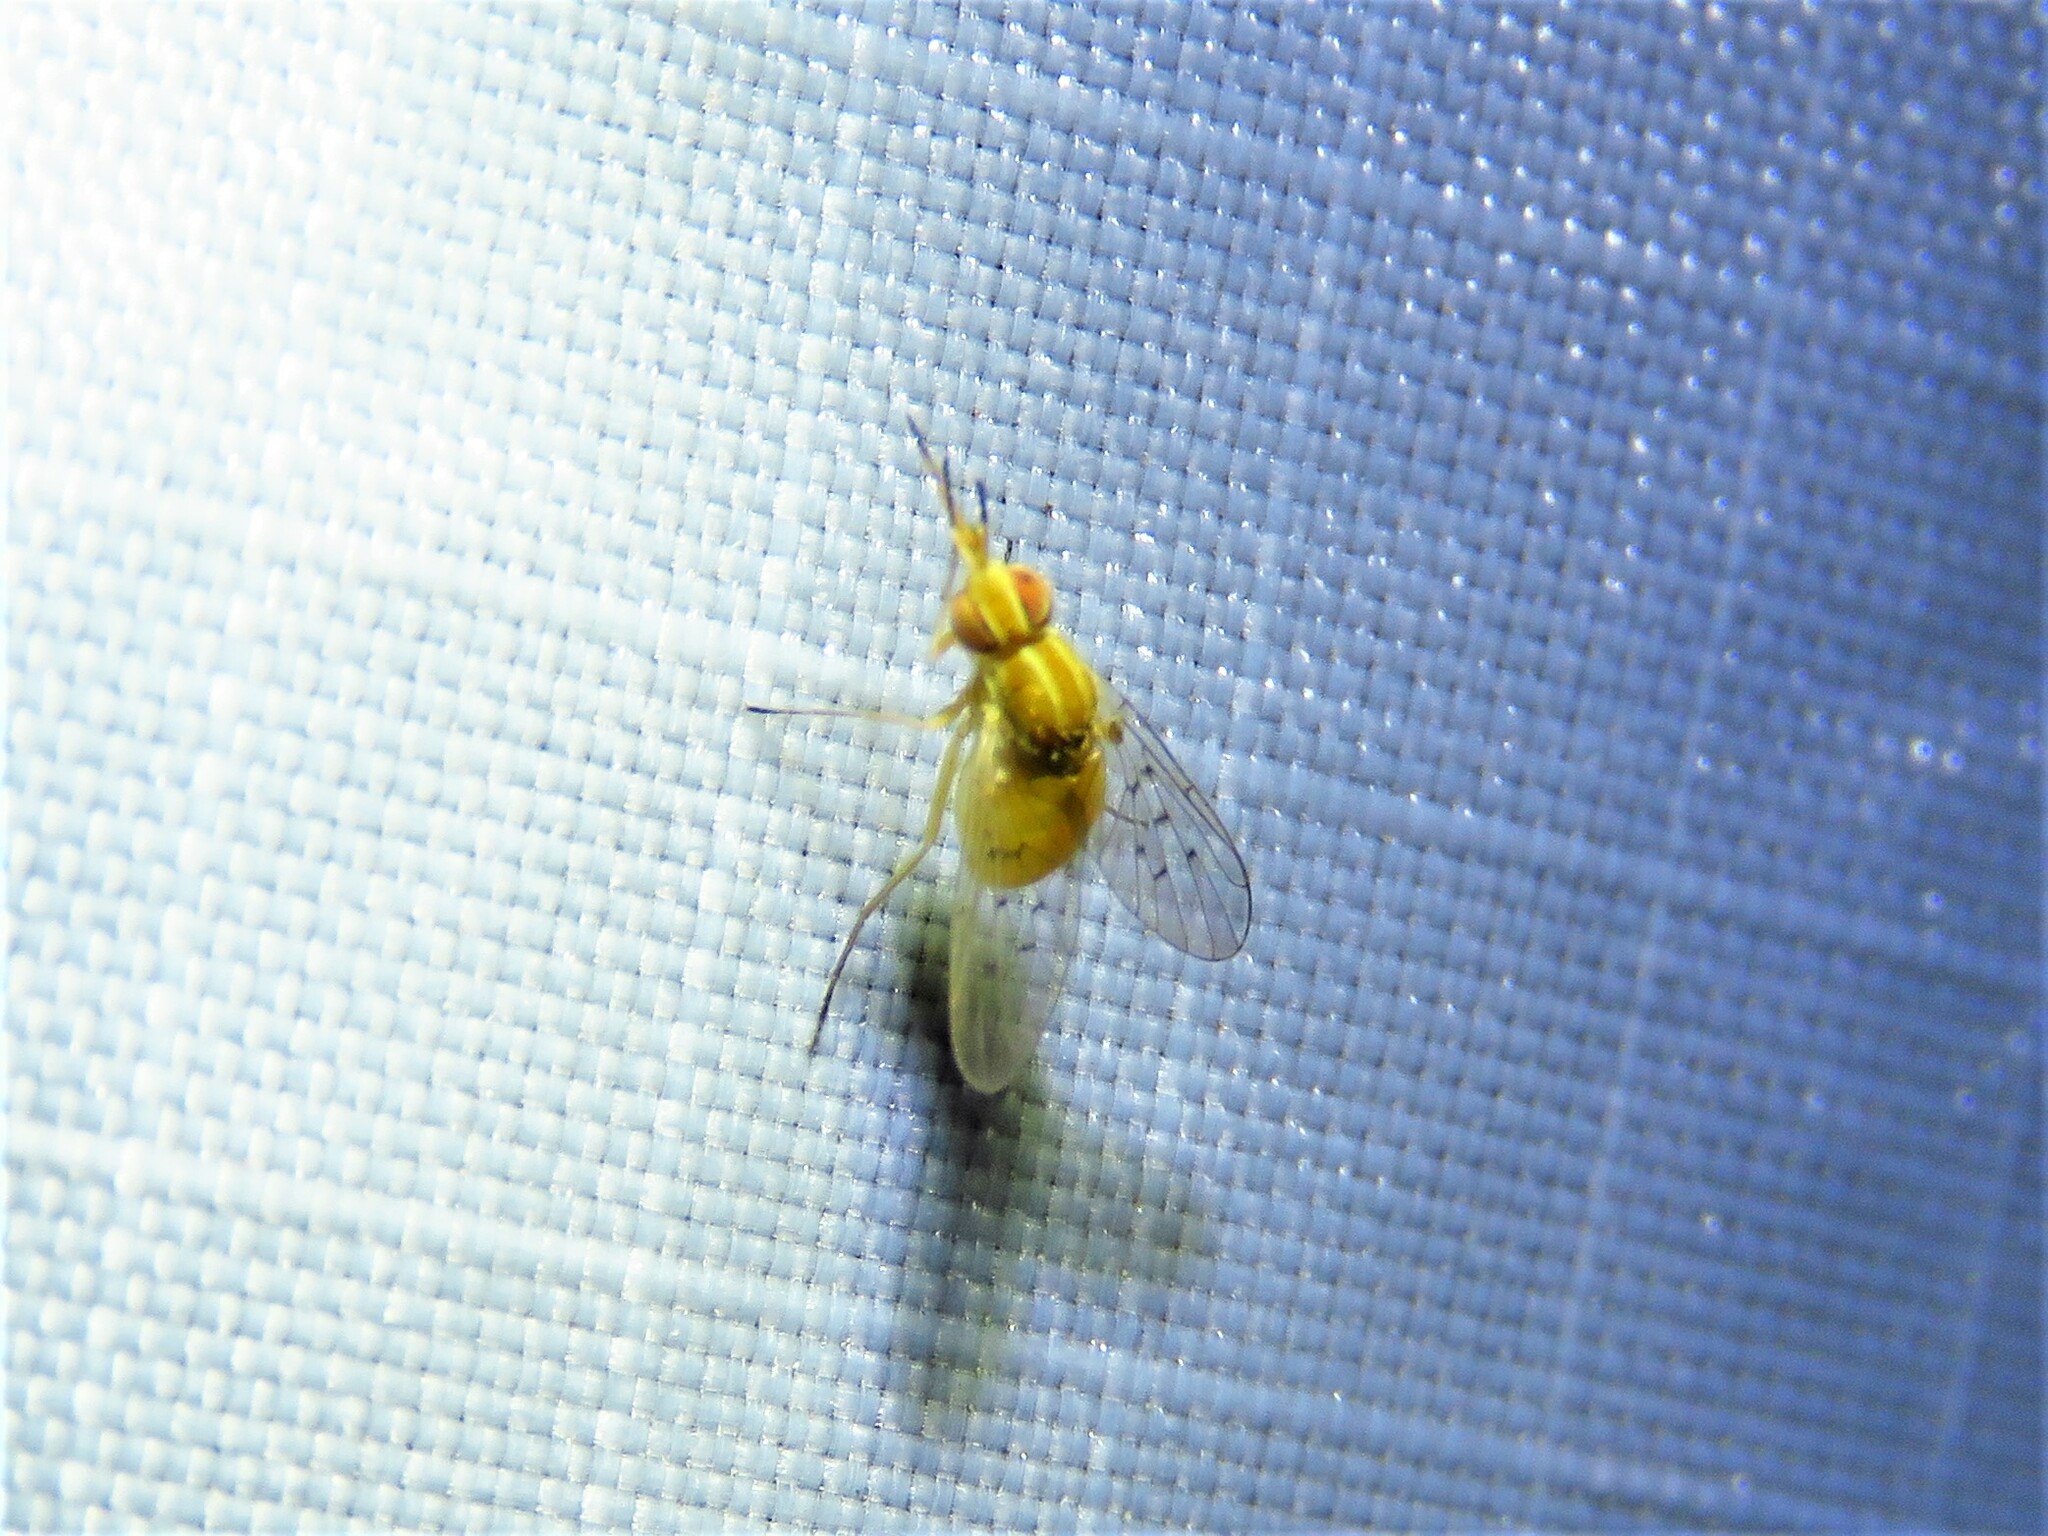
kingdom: Animalia
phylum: Arthropoda
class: Insecta
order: Diptera
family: Bombyliidae
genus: Poecilognathus
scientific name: Poecilognathus unimaculatus
